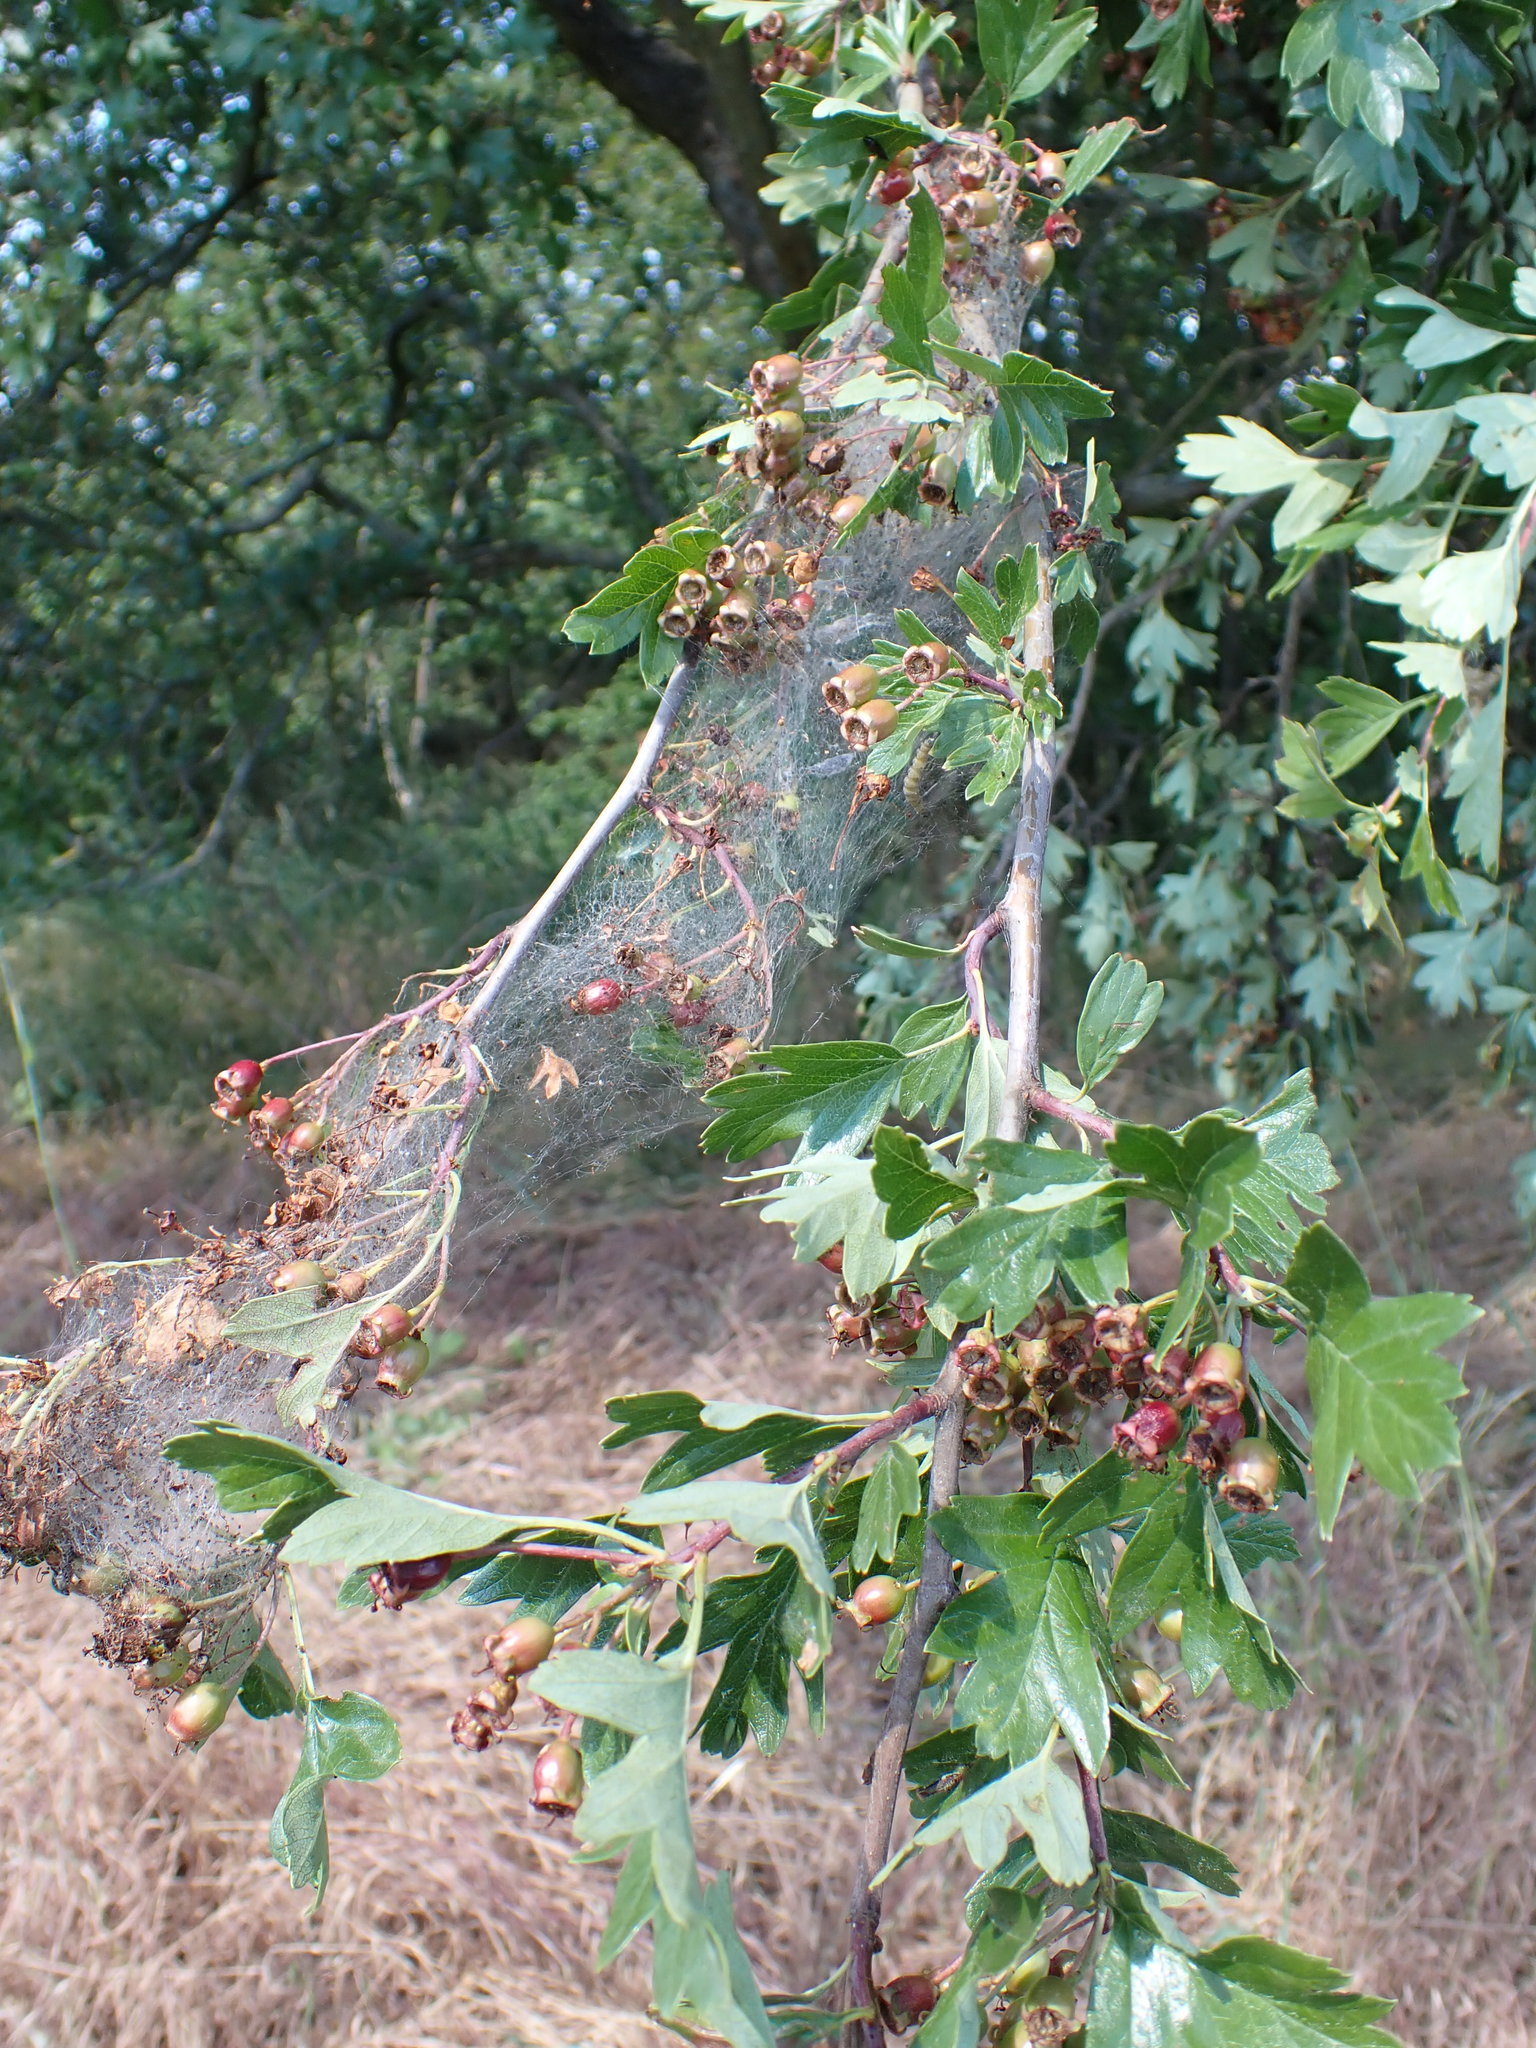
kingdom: Animalia
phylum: Arthropoda
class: Insecta
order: Lepidoptera
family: Yponomeutidae
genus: Yponomeuta
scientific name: Yponomeuta padella
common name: Orchard ermine
